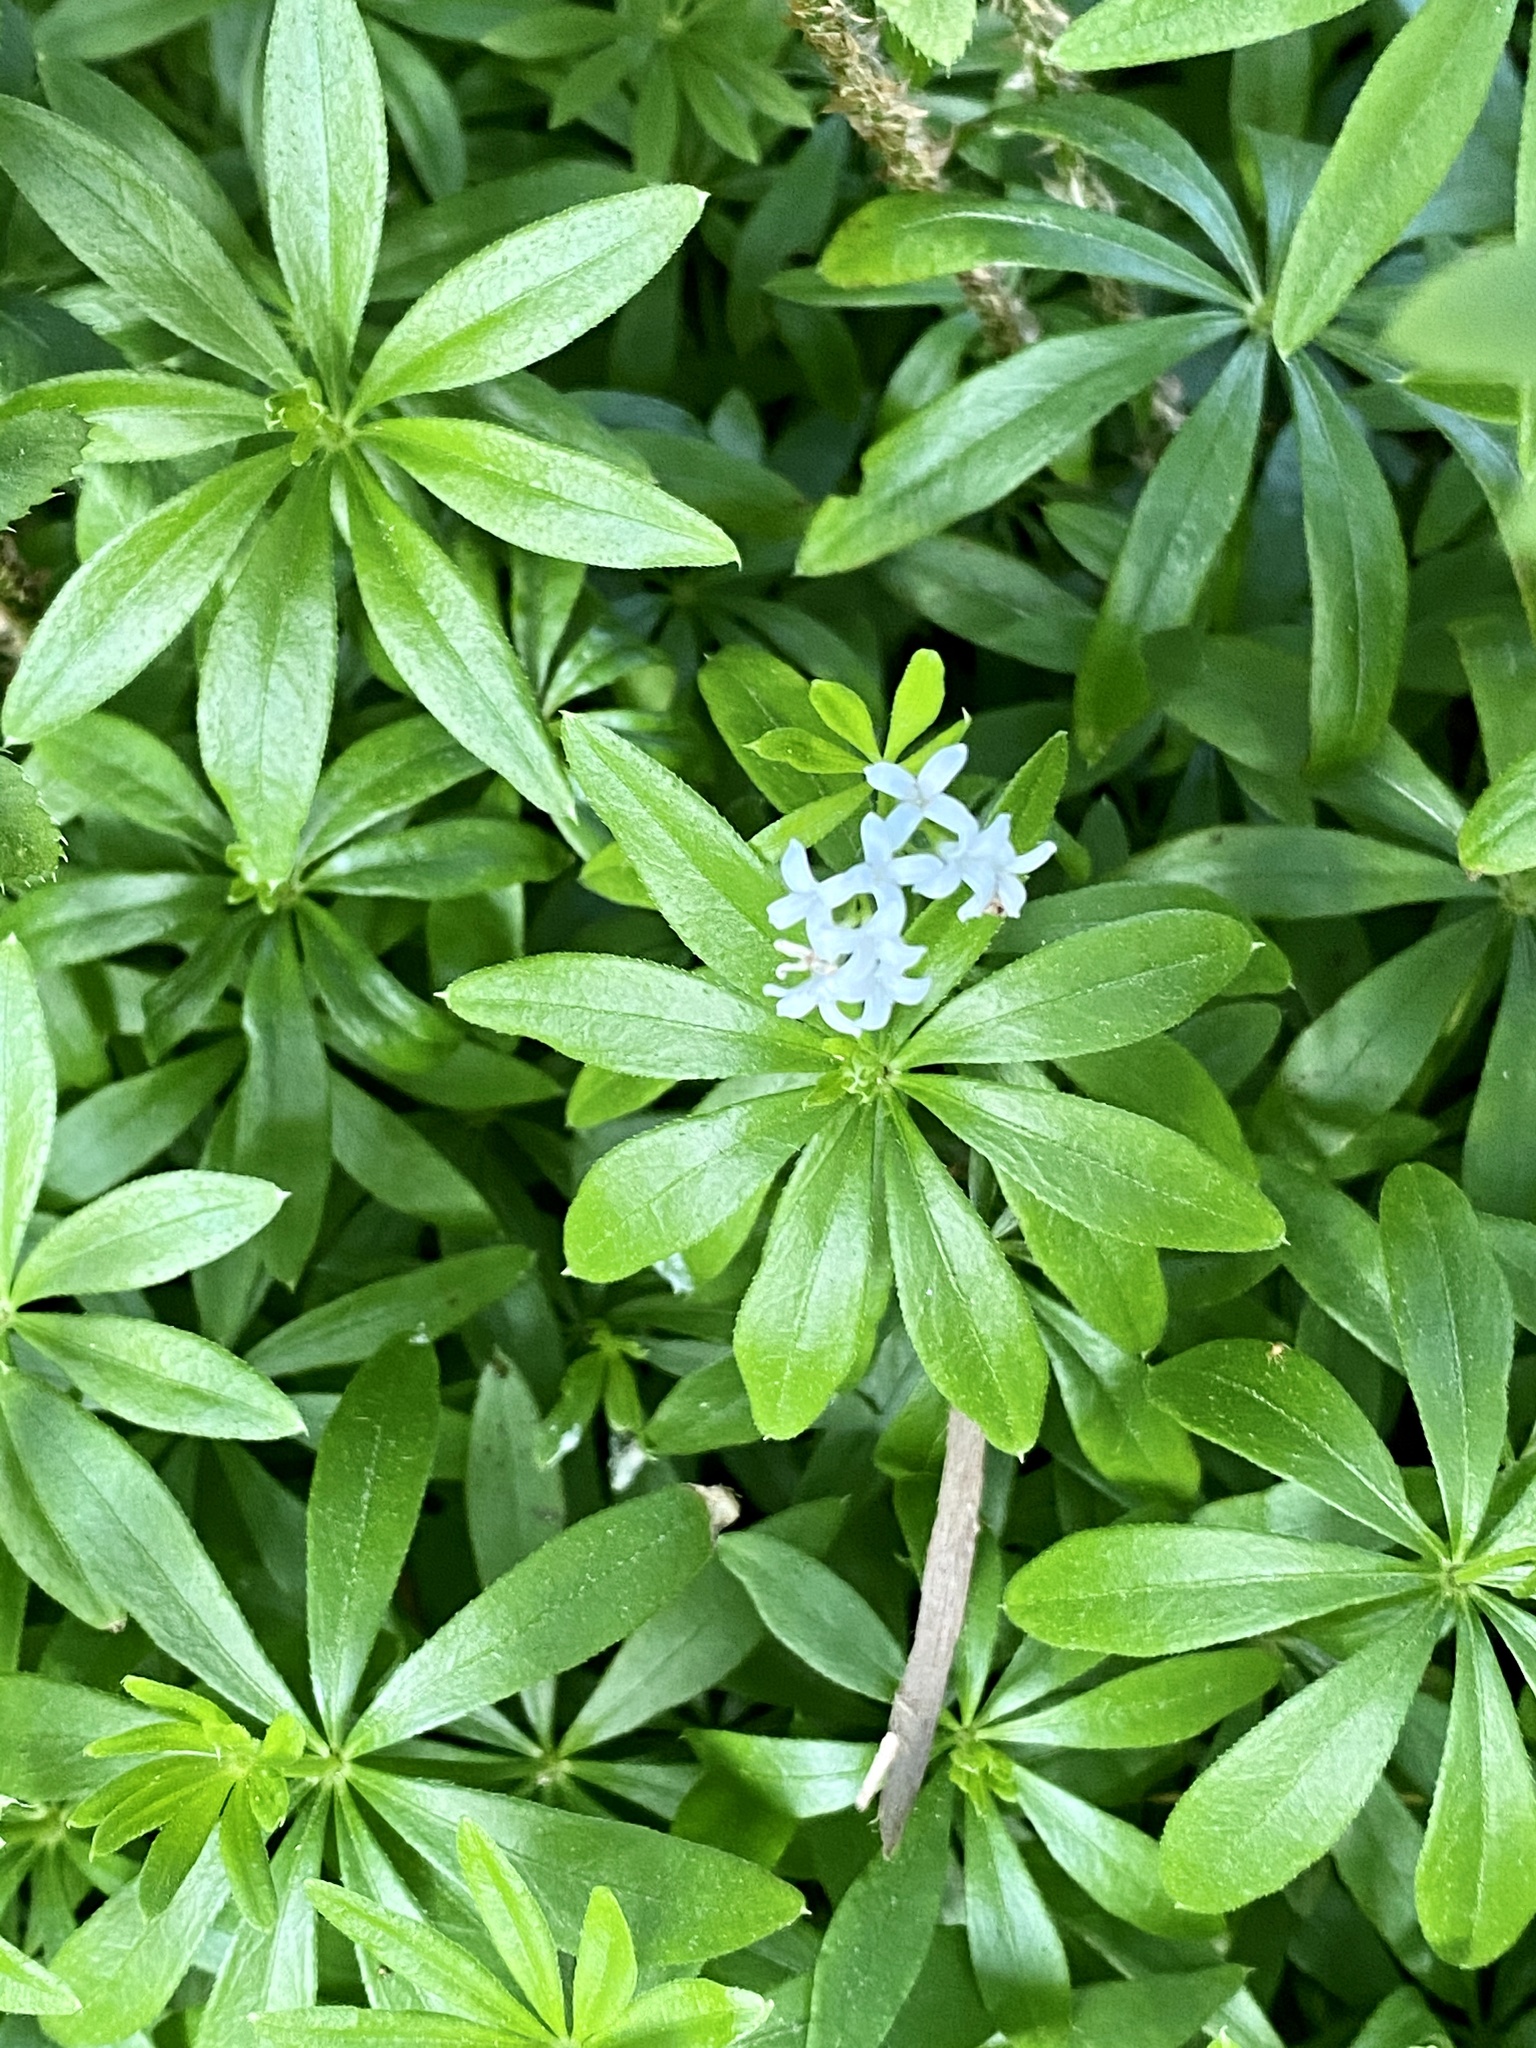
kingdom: Plantae
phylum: Tracheophyta
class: Magnoliopsida
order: Gentianales
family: Rubiaceae
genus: Galium
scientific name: Galium odoratum
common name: Sweet woodruff
